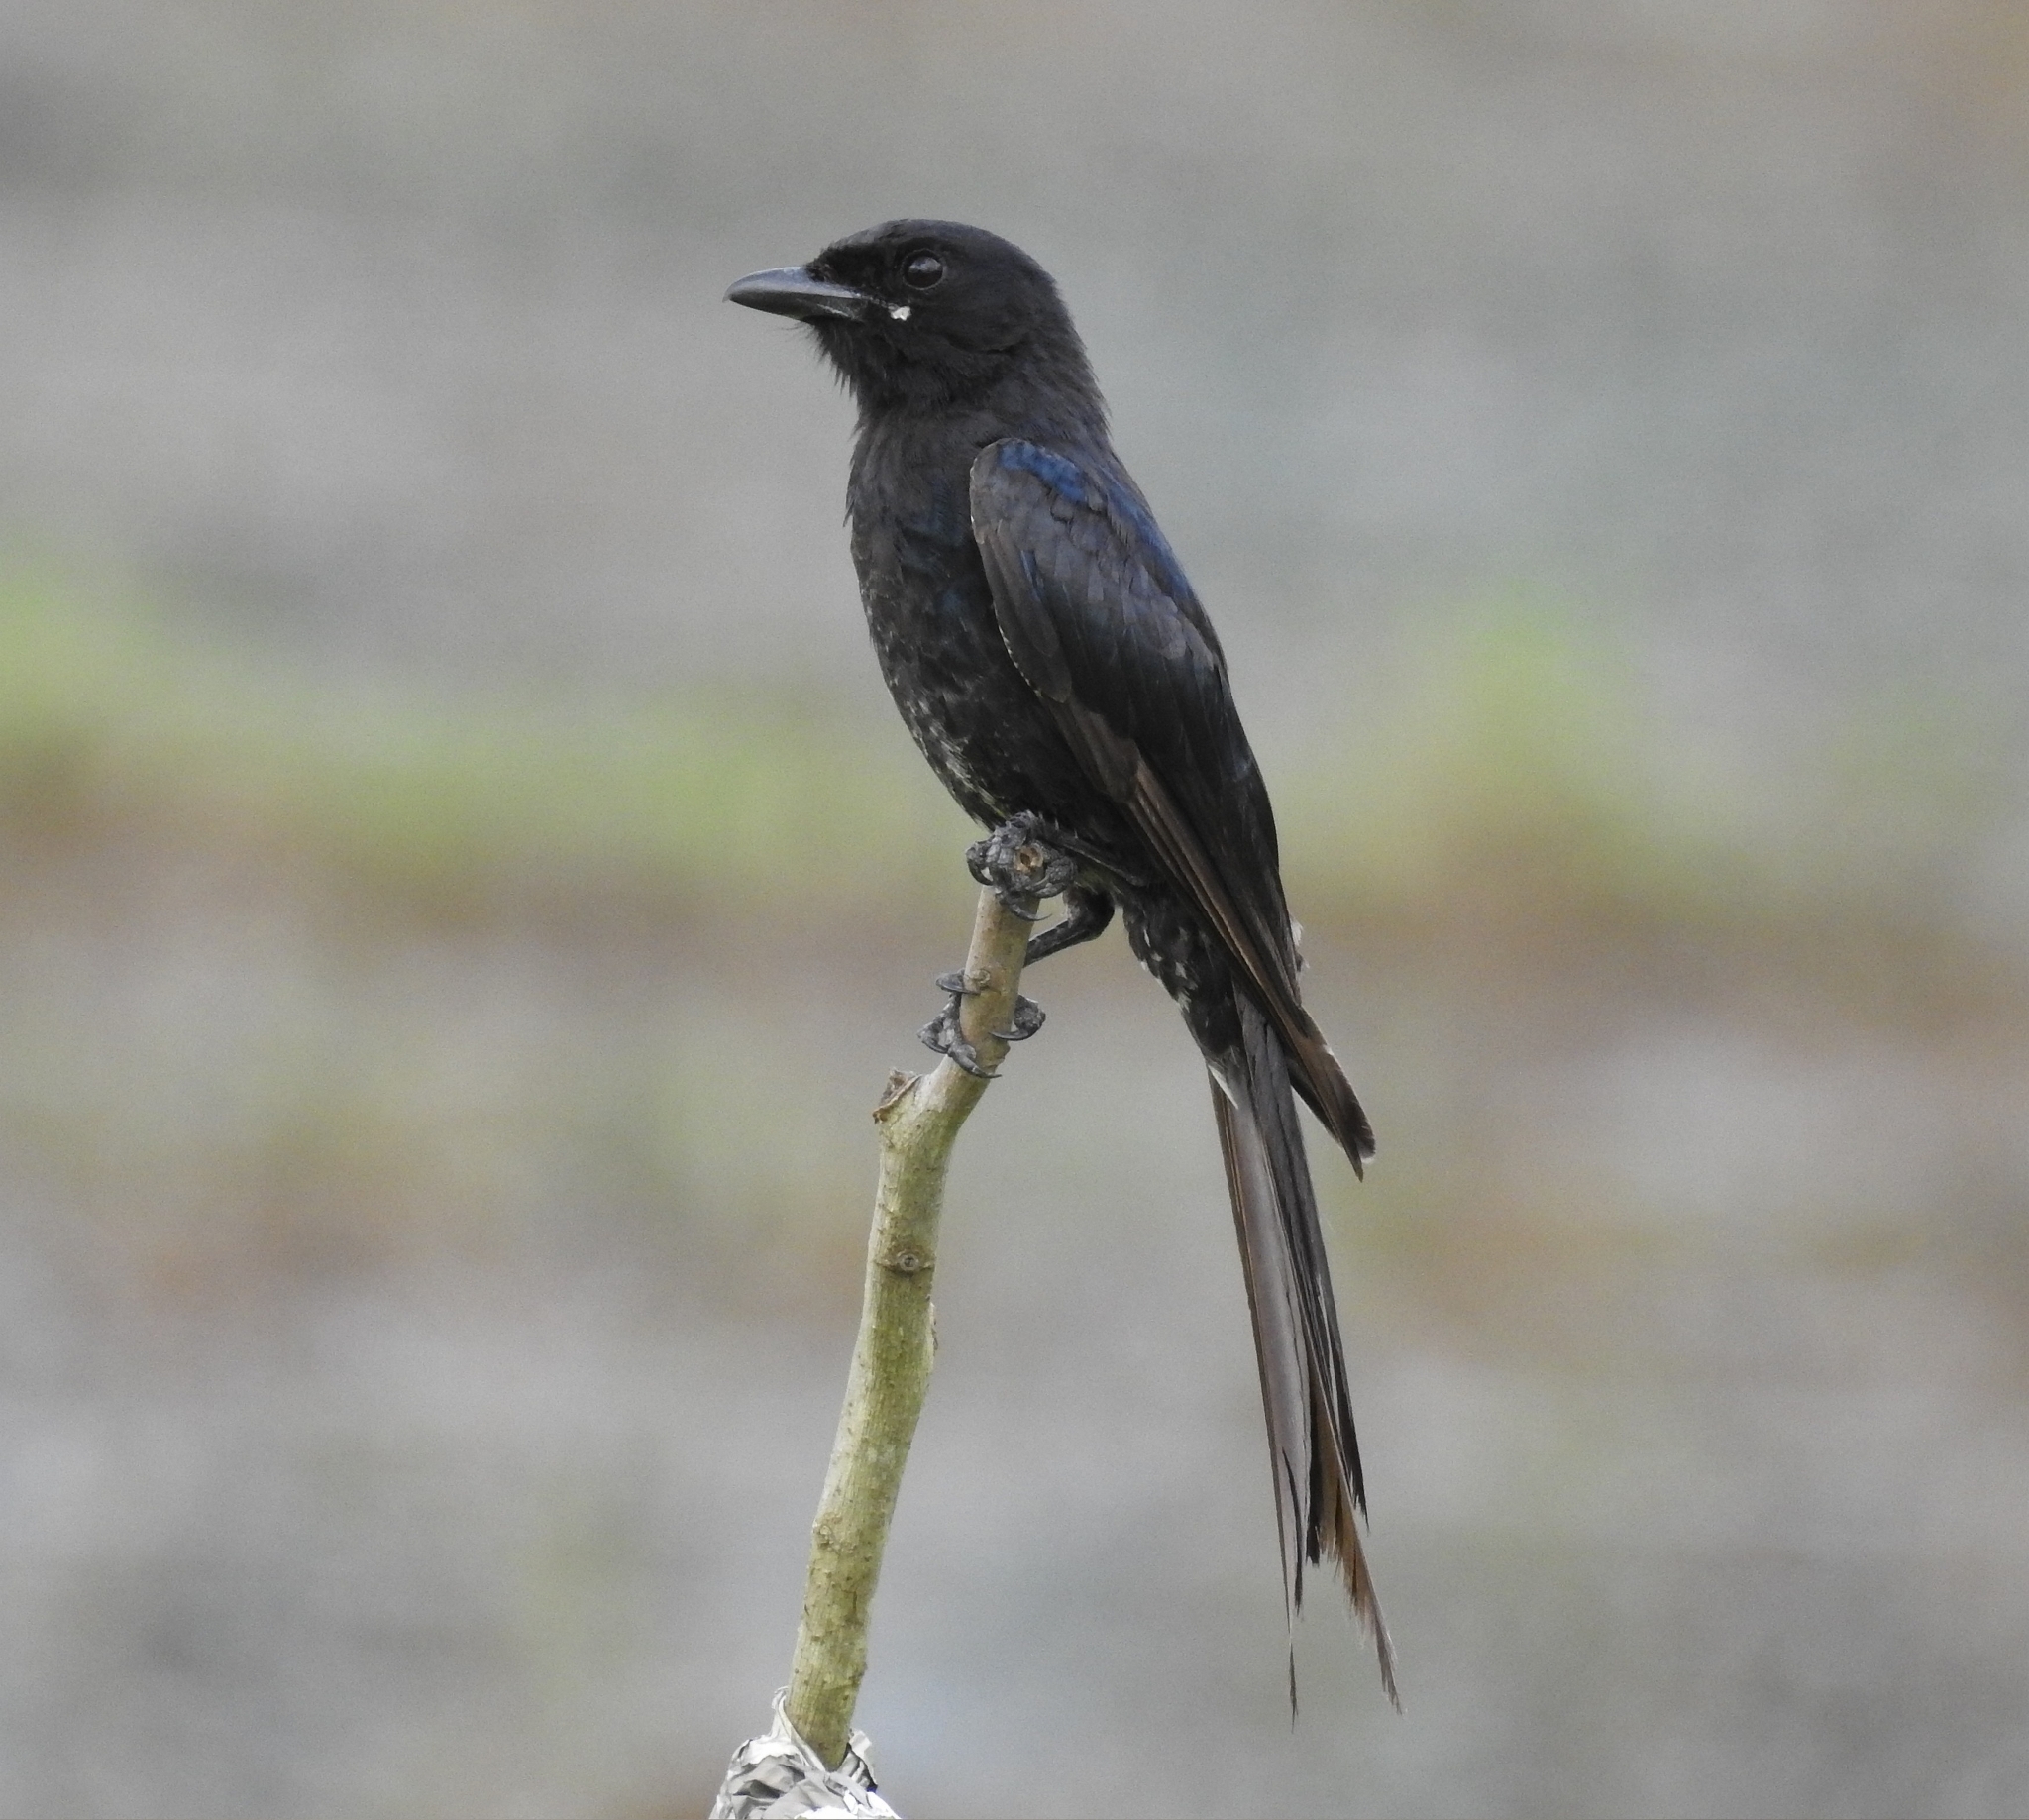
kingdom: Animalia
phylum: Chordata
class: Aves
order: Passeriformes
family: Dicruridae
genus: Dicrurus
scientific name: Dicrurus macrocercus
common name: Black drongo
